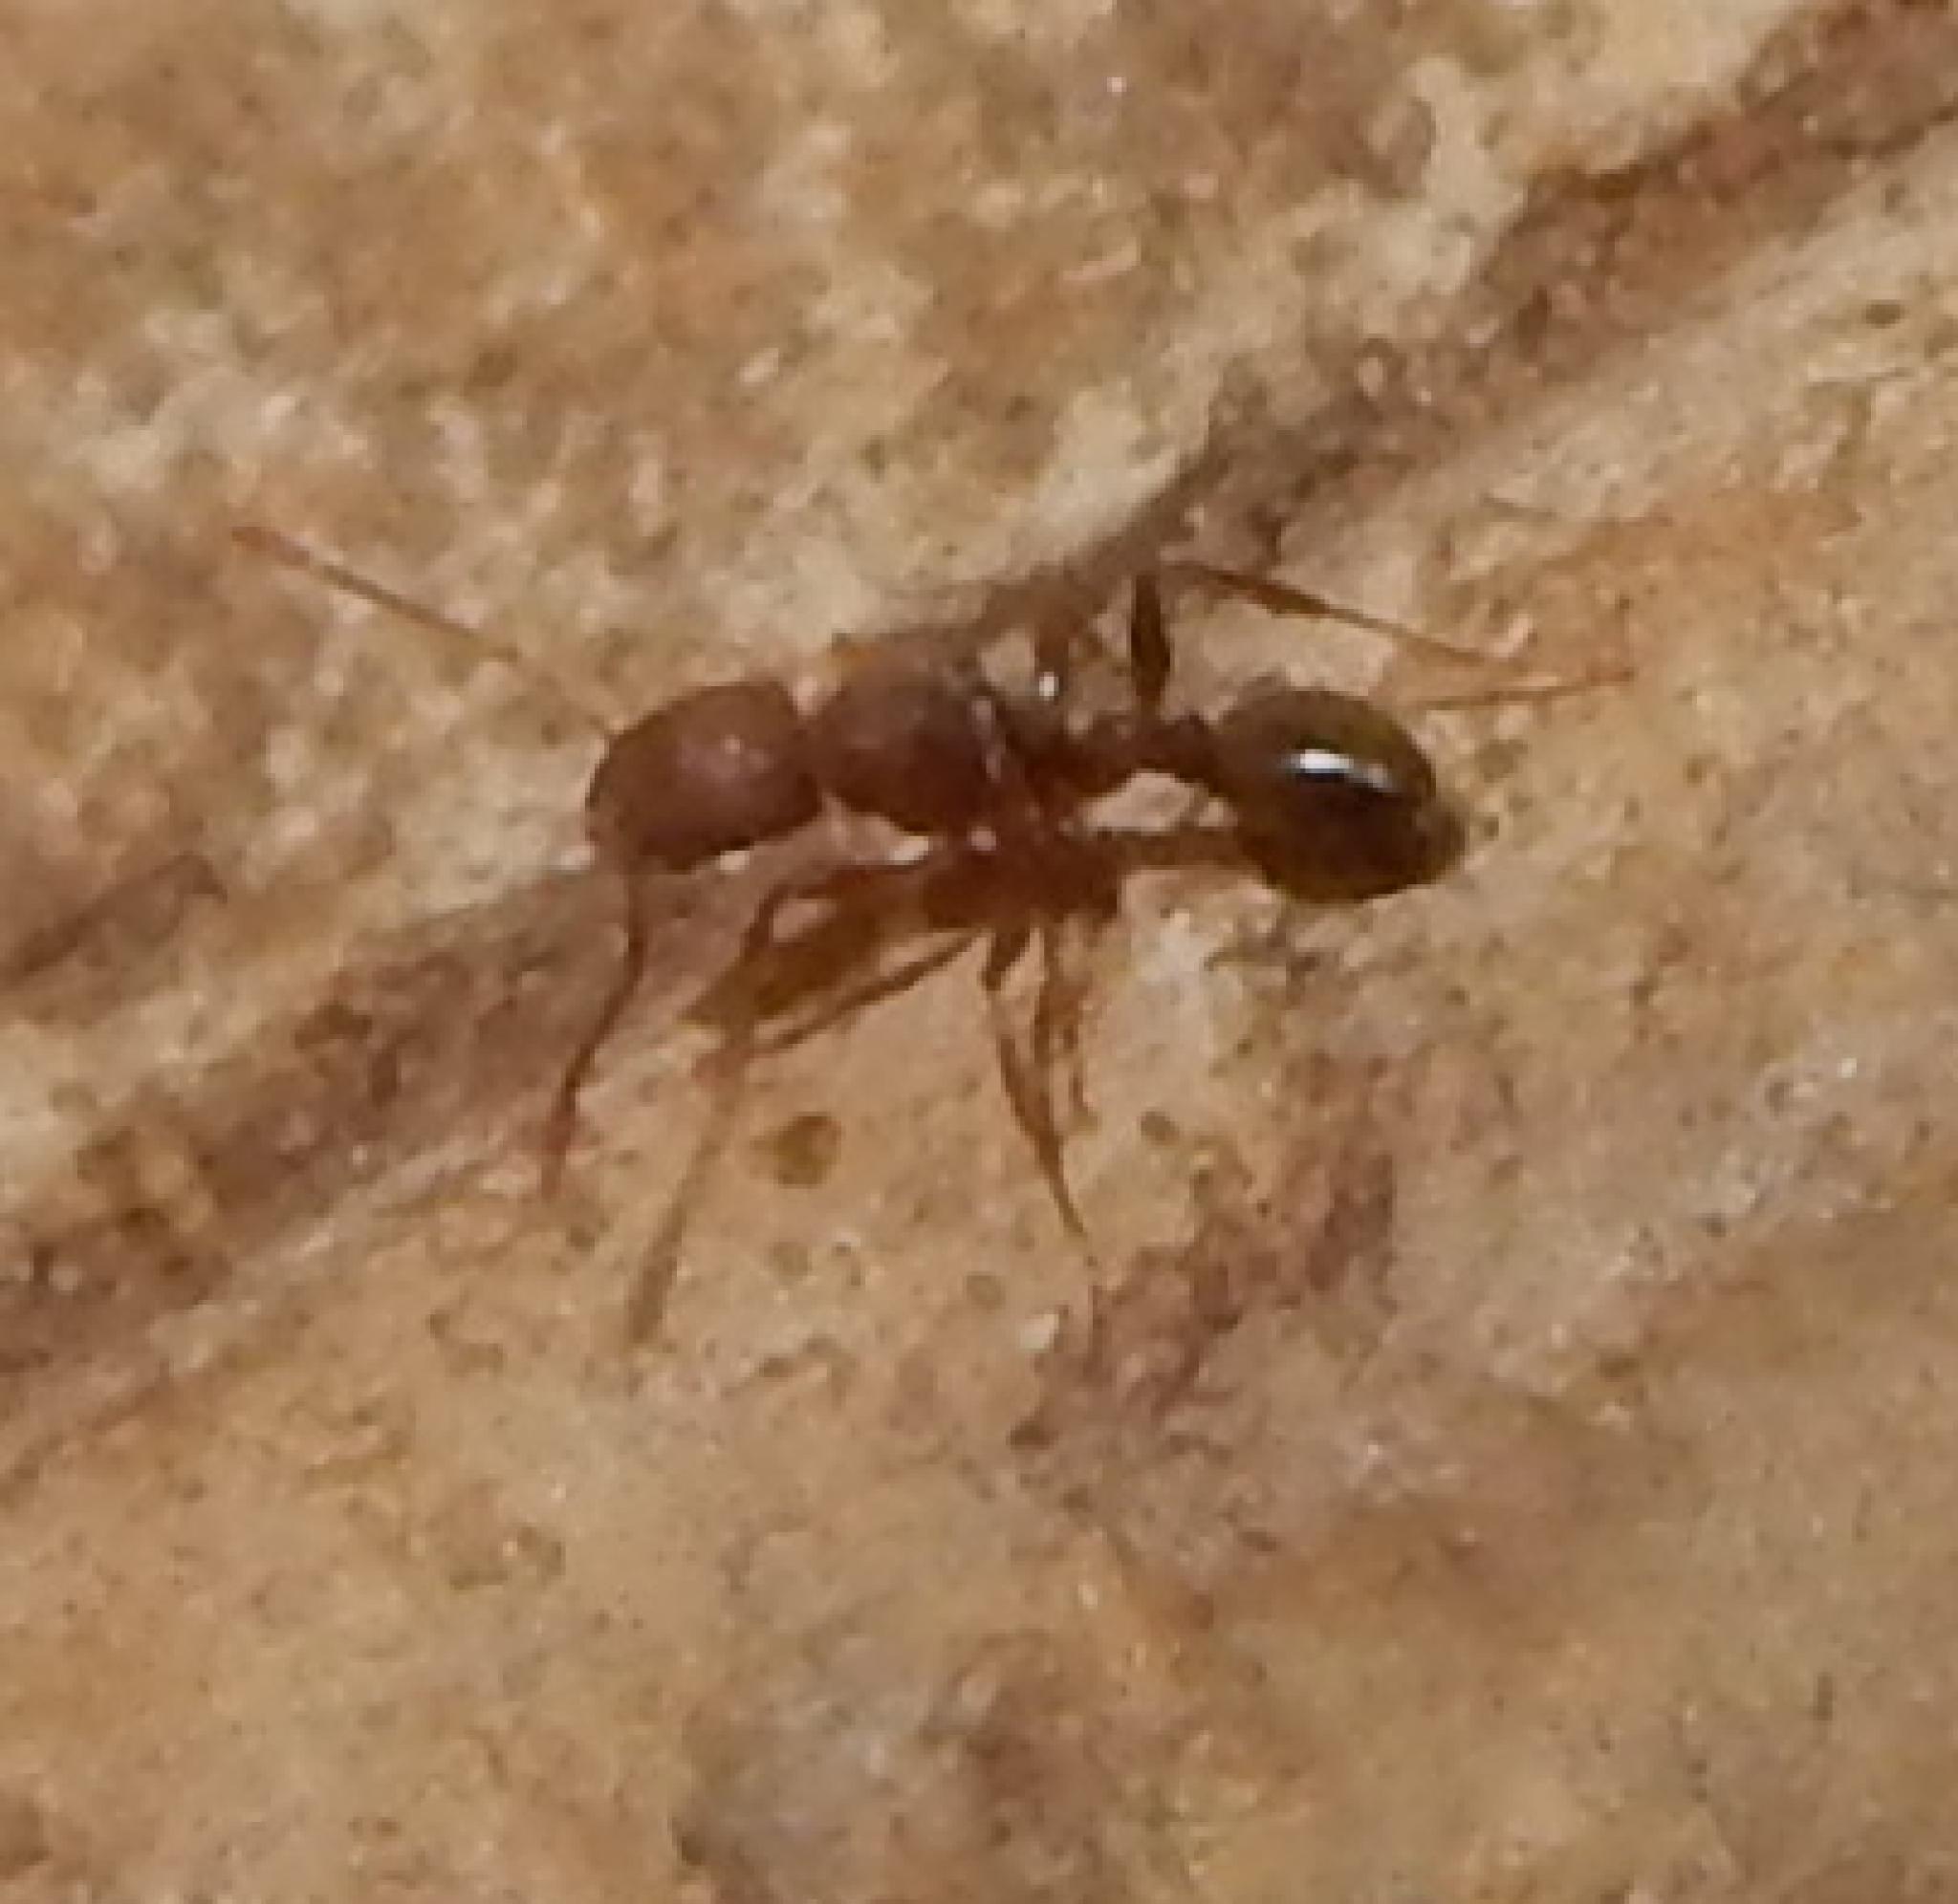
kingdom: Animalia
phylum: Arthropoda
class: Insecta
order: Hymenoptera
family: Formicidae
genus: Cardiocondyla
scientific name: Cardiocondyla emeryi
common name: Ant
